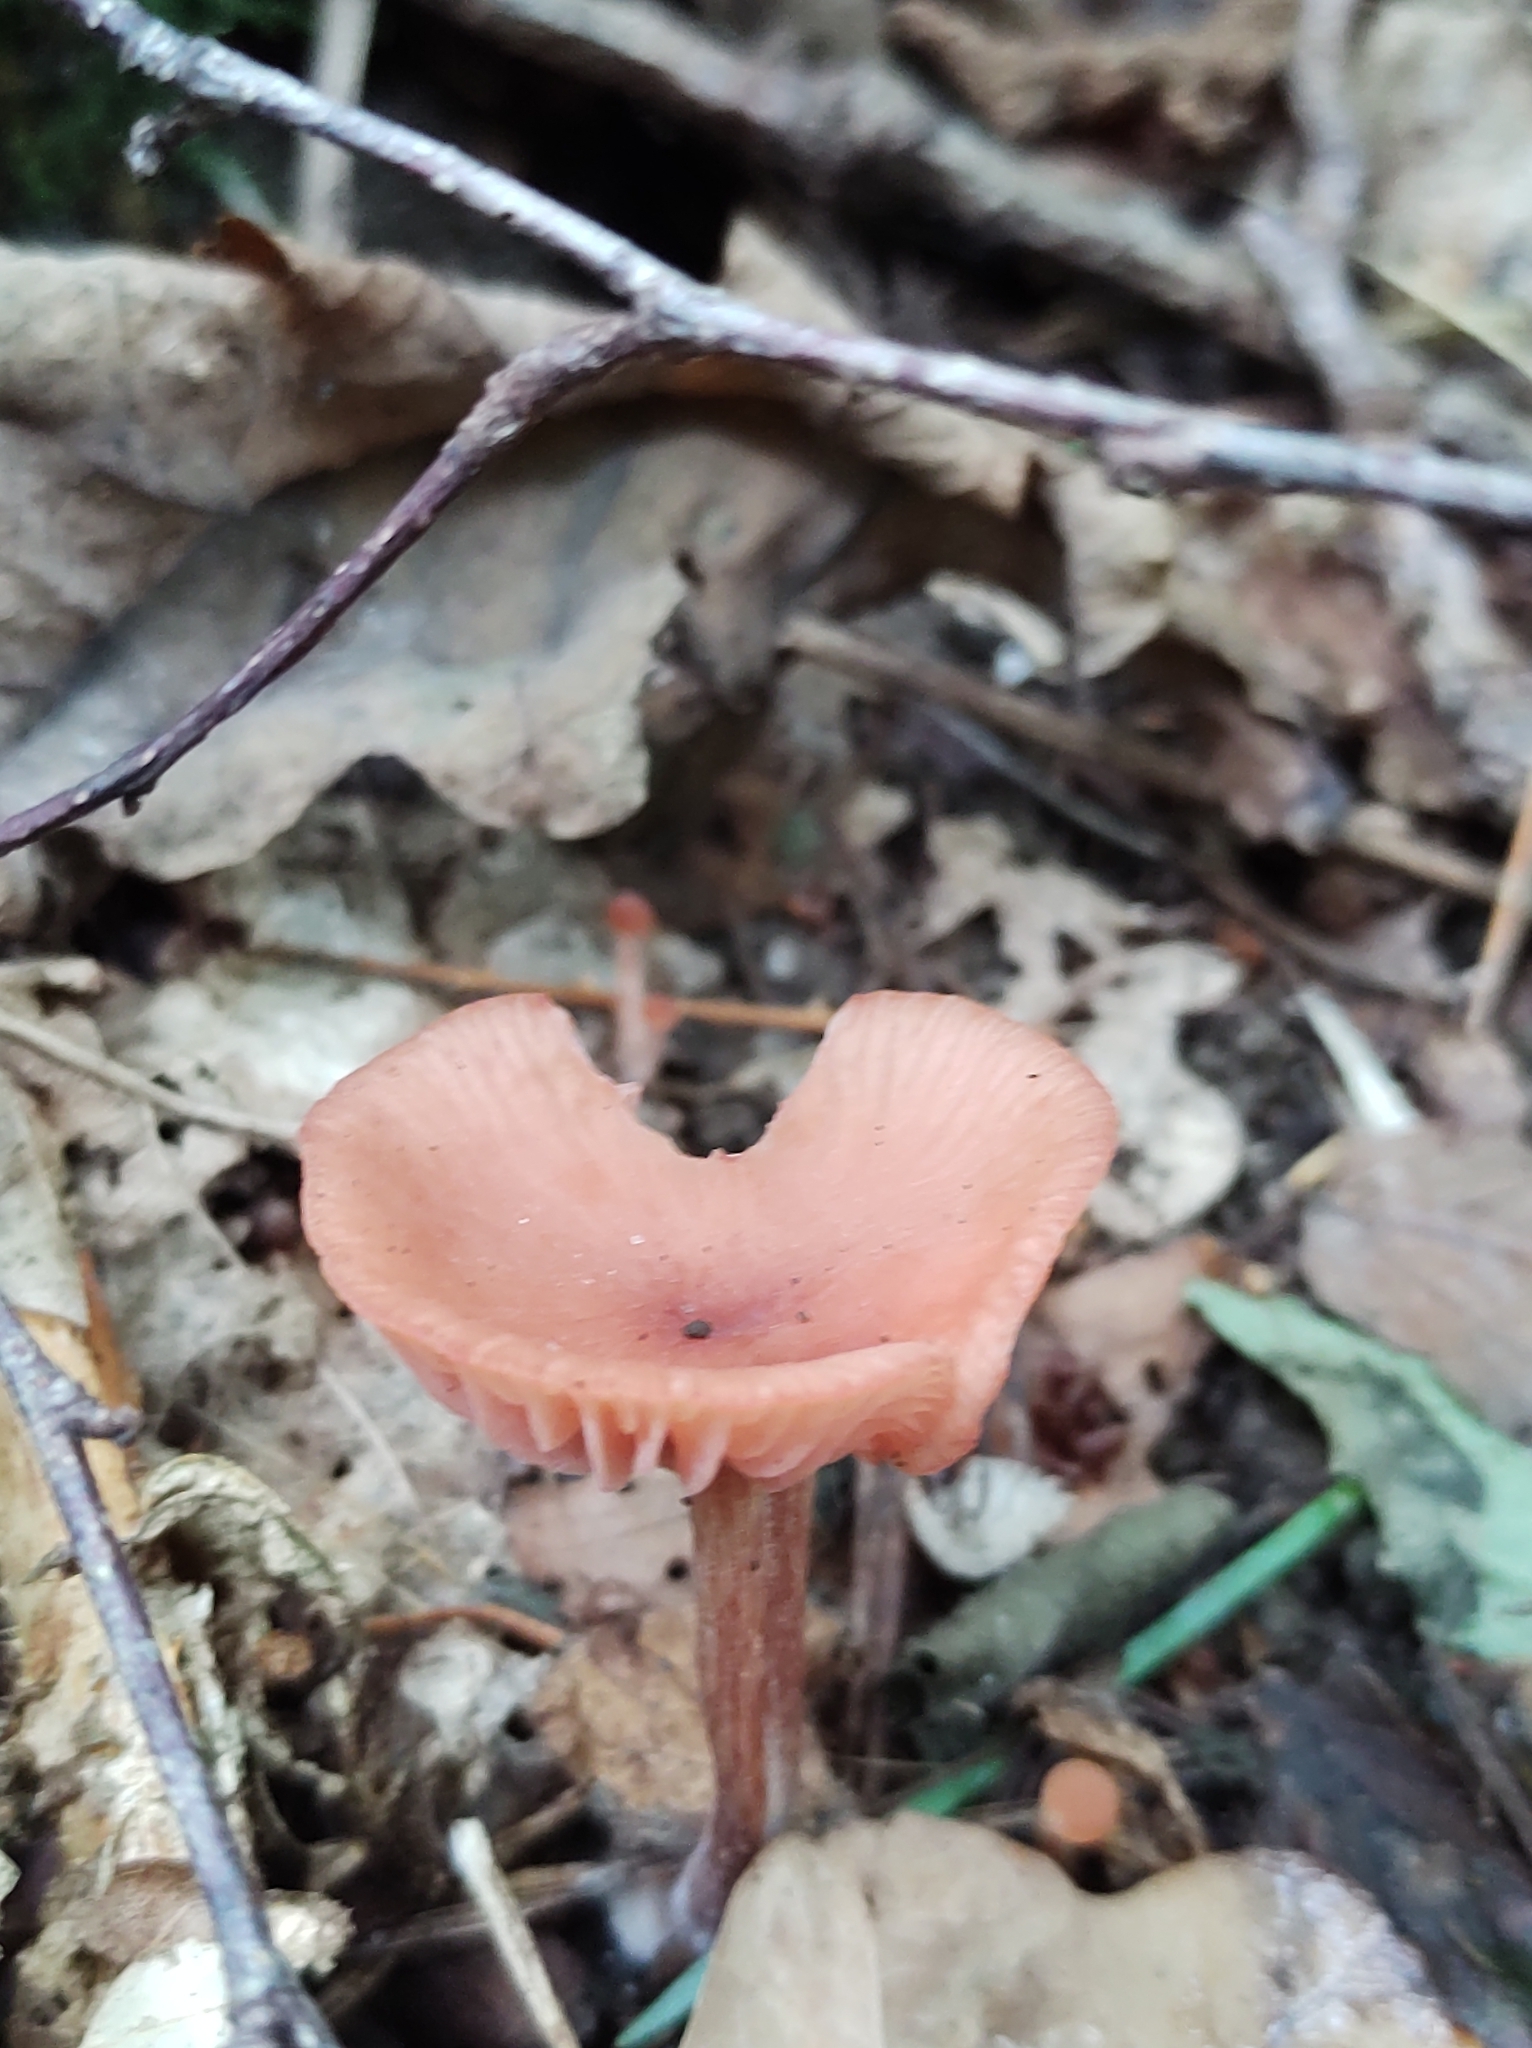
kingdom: Fungi
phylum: Basidiomycota
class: Agaricomycetes
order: Agaricales
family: Hydnangiaceae
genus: Laccaria
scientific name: Laccaria laccata
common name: Deceiver
